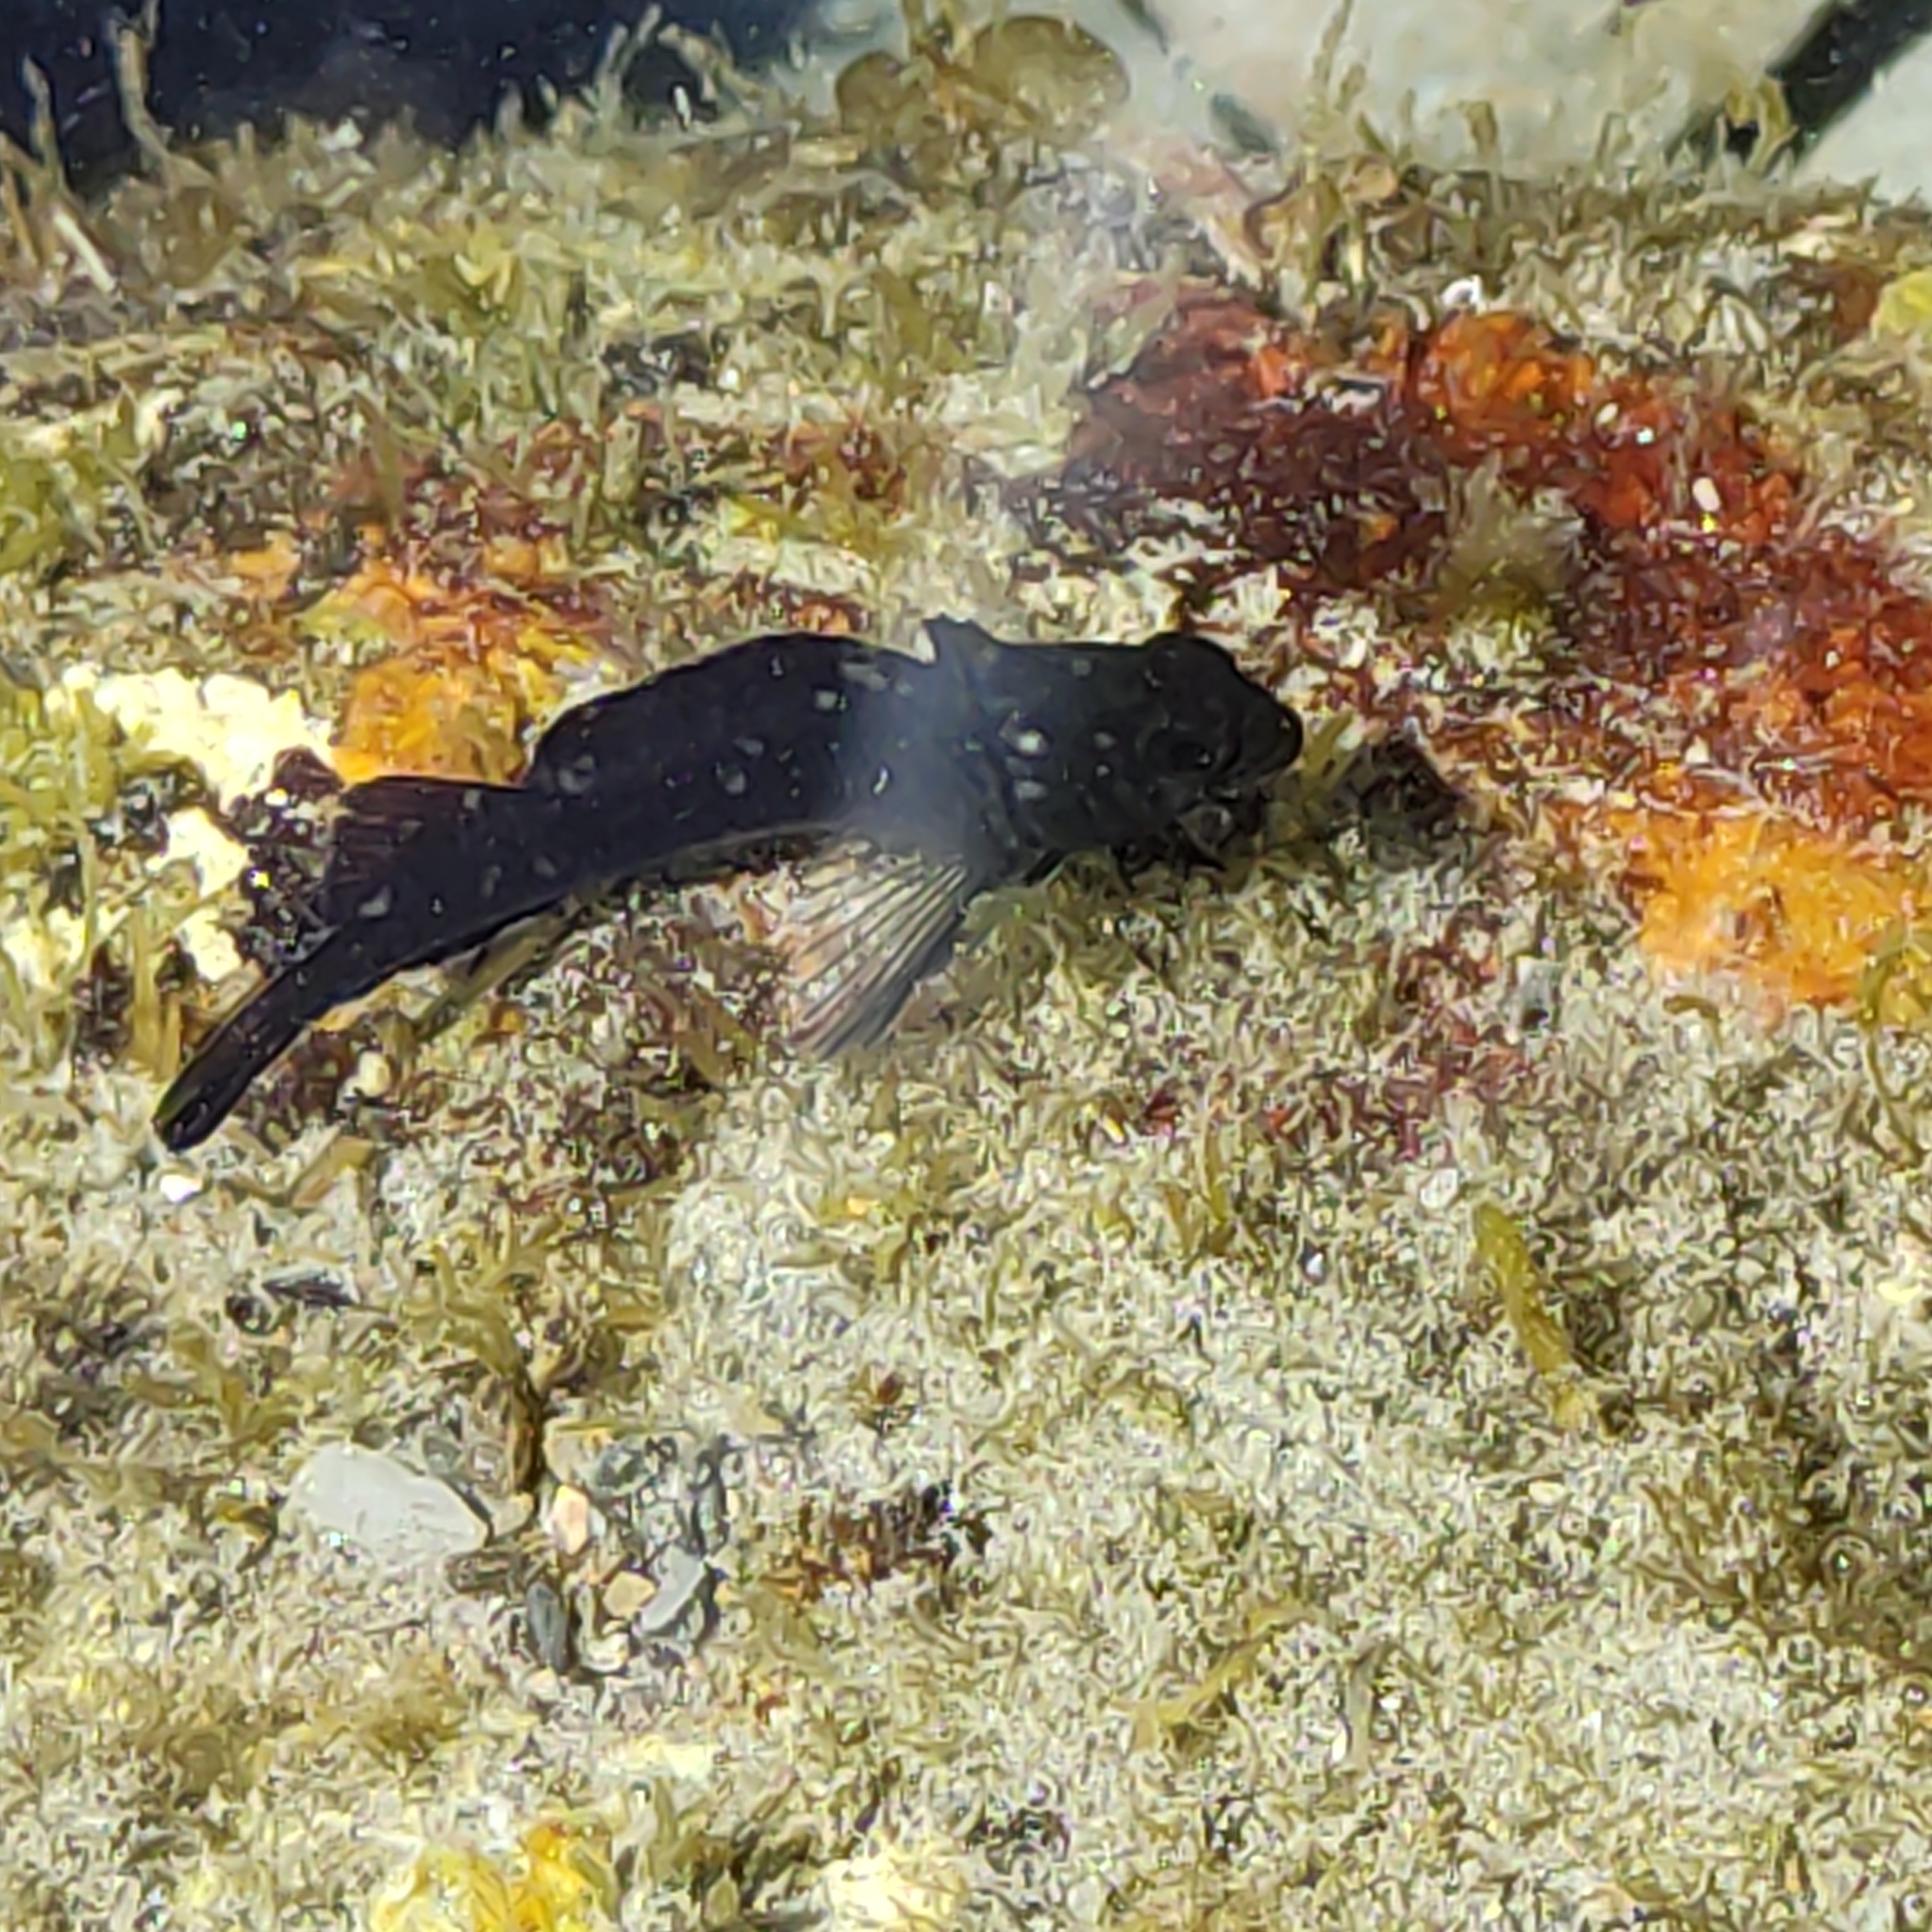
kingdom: Animalia
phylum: Chordata
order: Perciformes
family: Tripterygiidae
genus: Forsterygion
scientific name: Forsterygion lapillum
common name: Common triplefin
